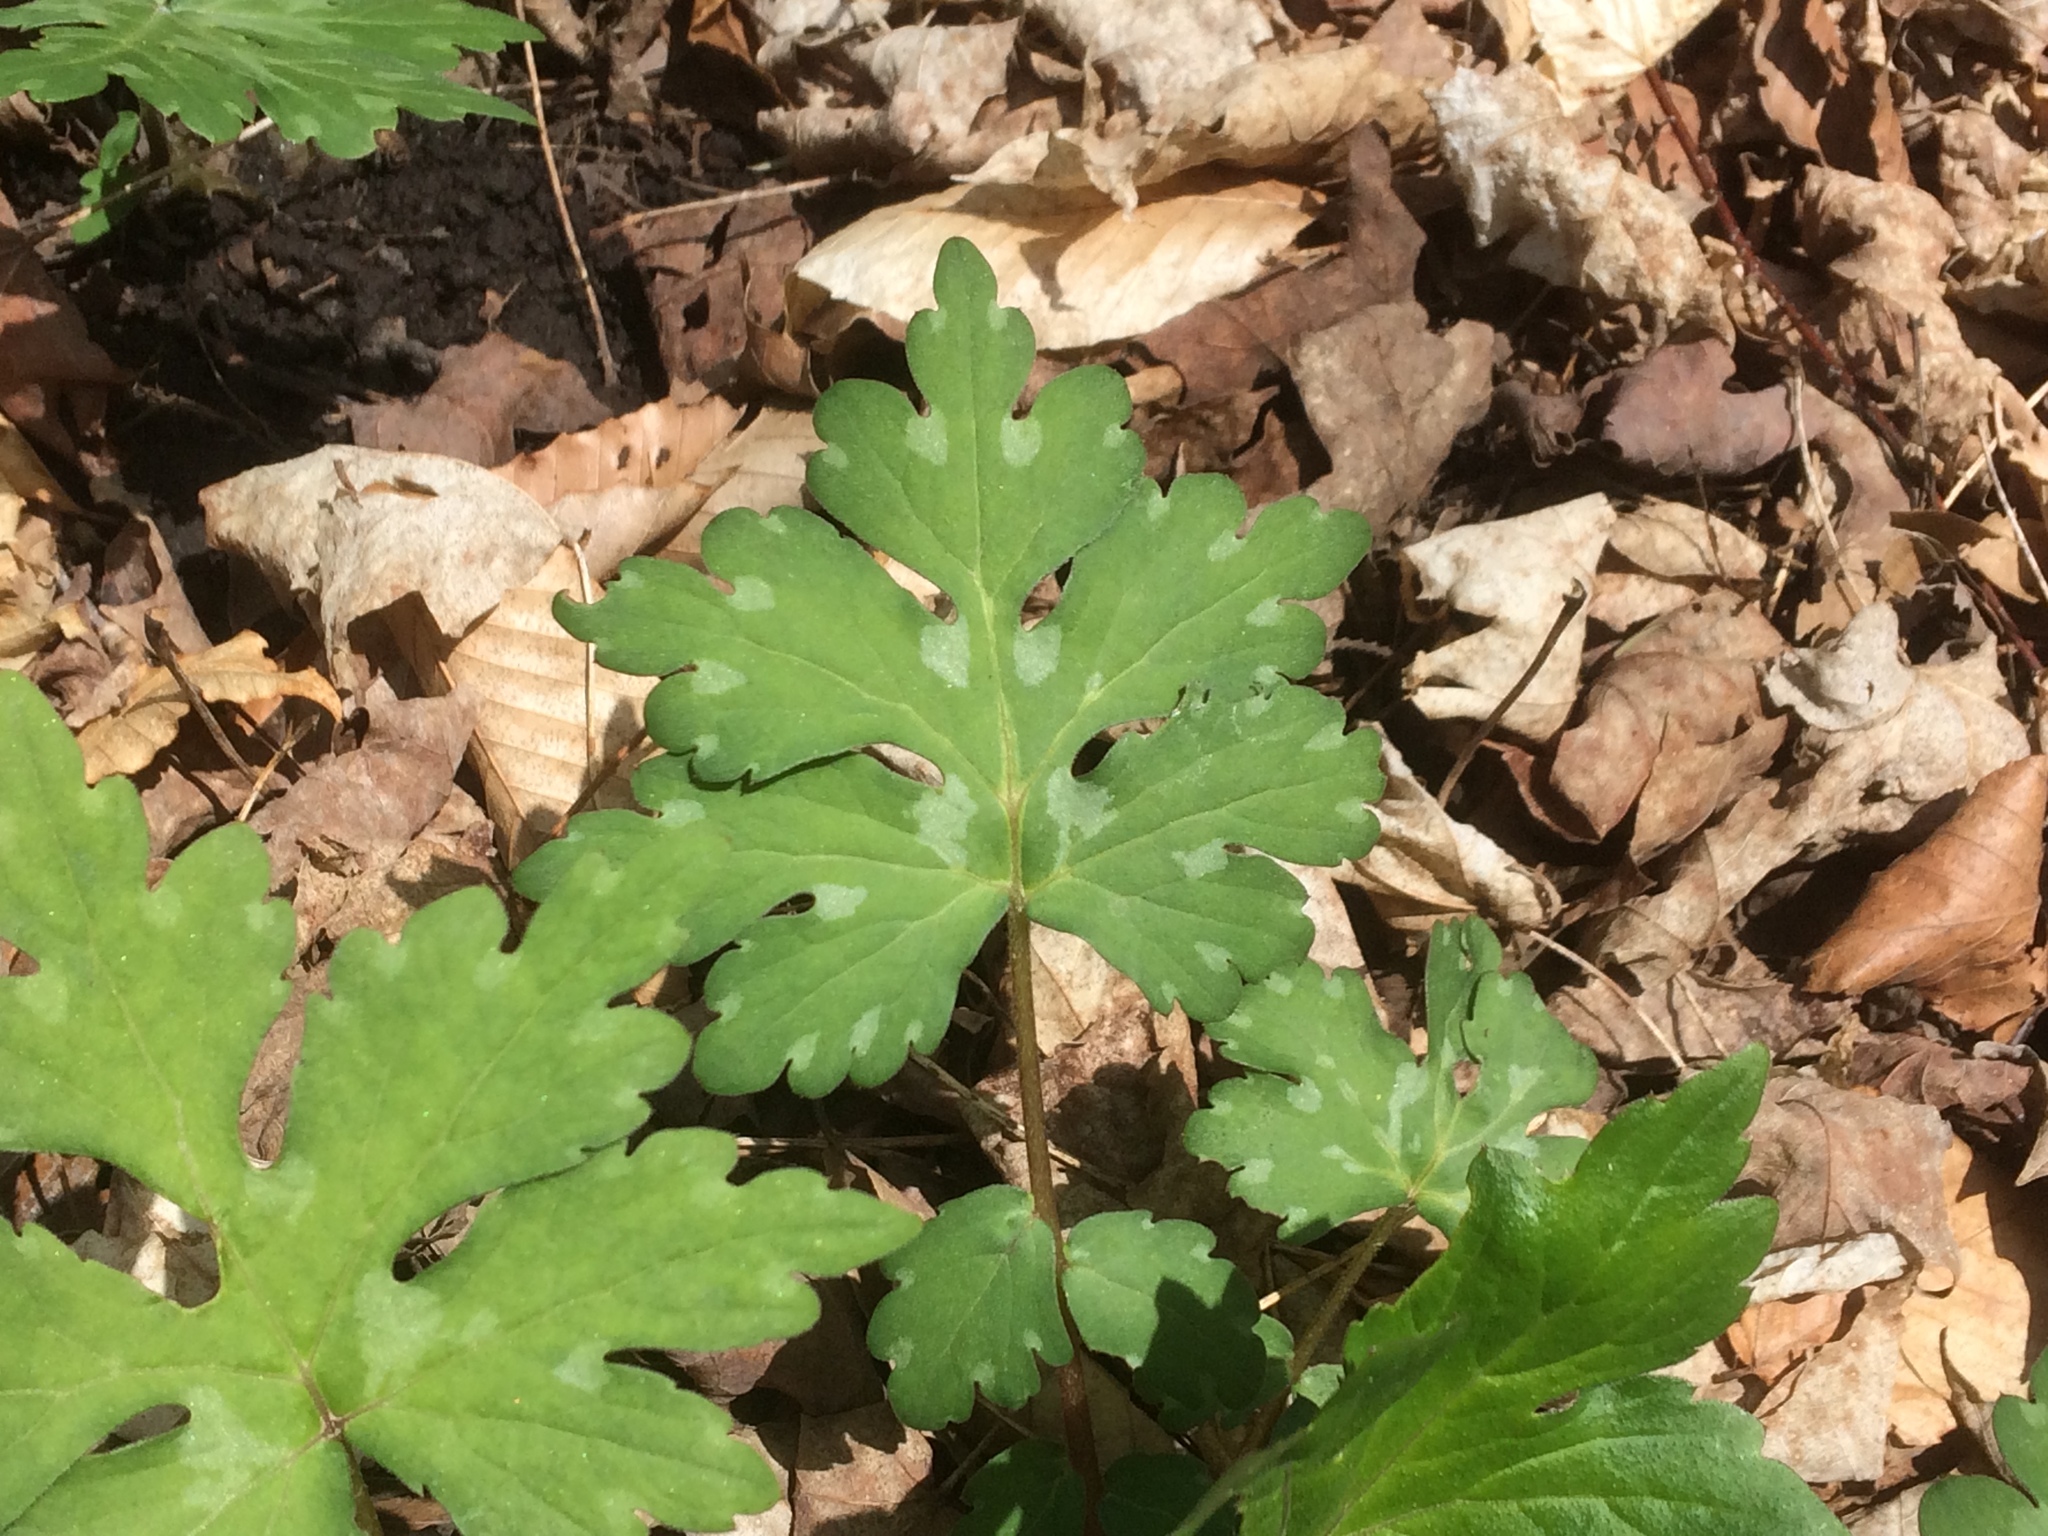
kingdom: Plantae
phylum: Tracheophyta
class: Magnoliopsida
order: Boraginales
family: Hydrophyllaceae
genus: Hydrophyllum
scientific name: Hydrophyllum canadense
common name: Canada waterleaf
